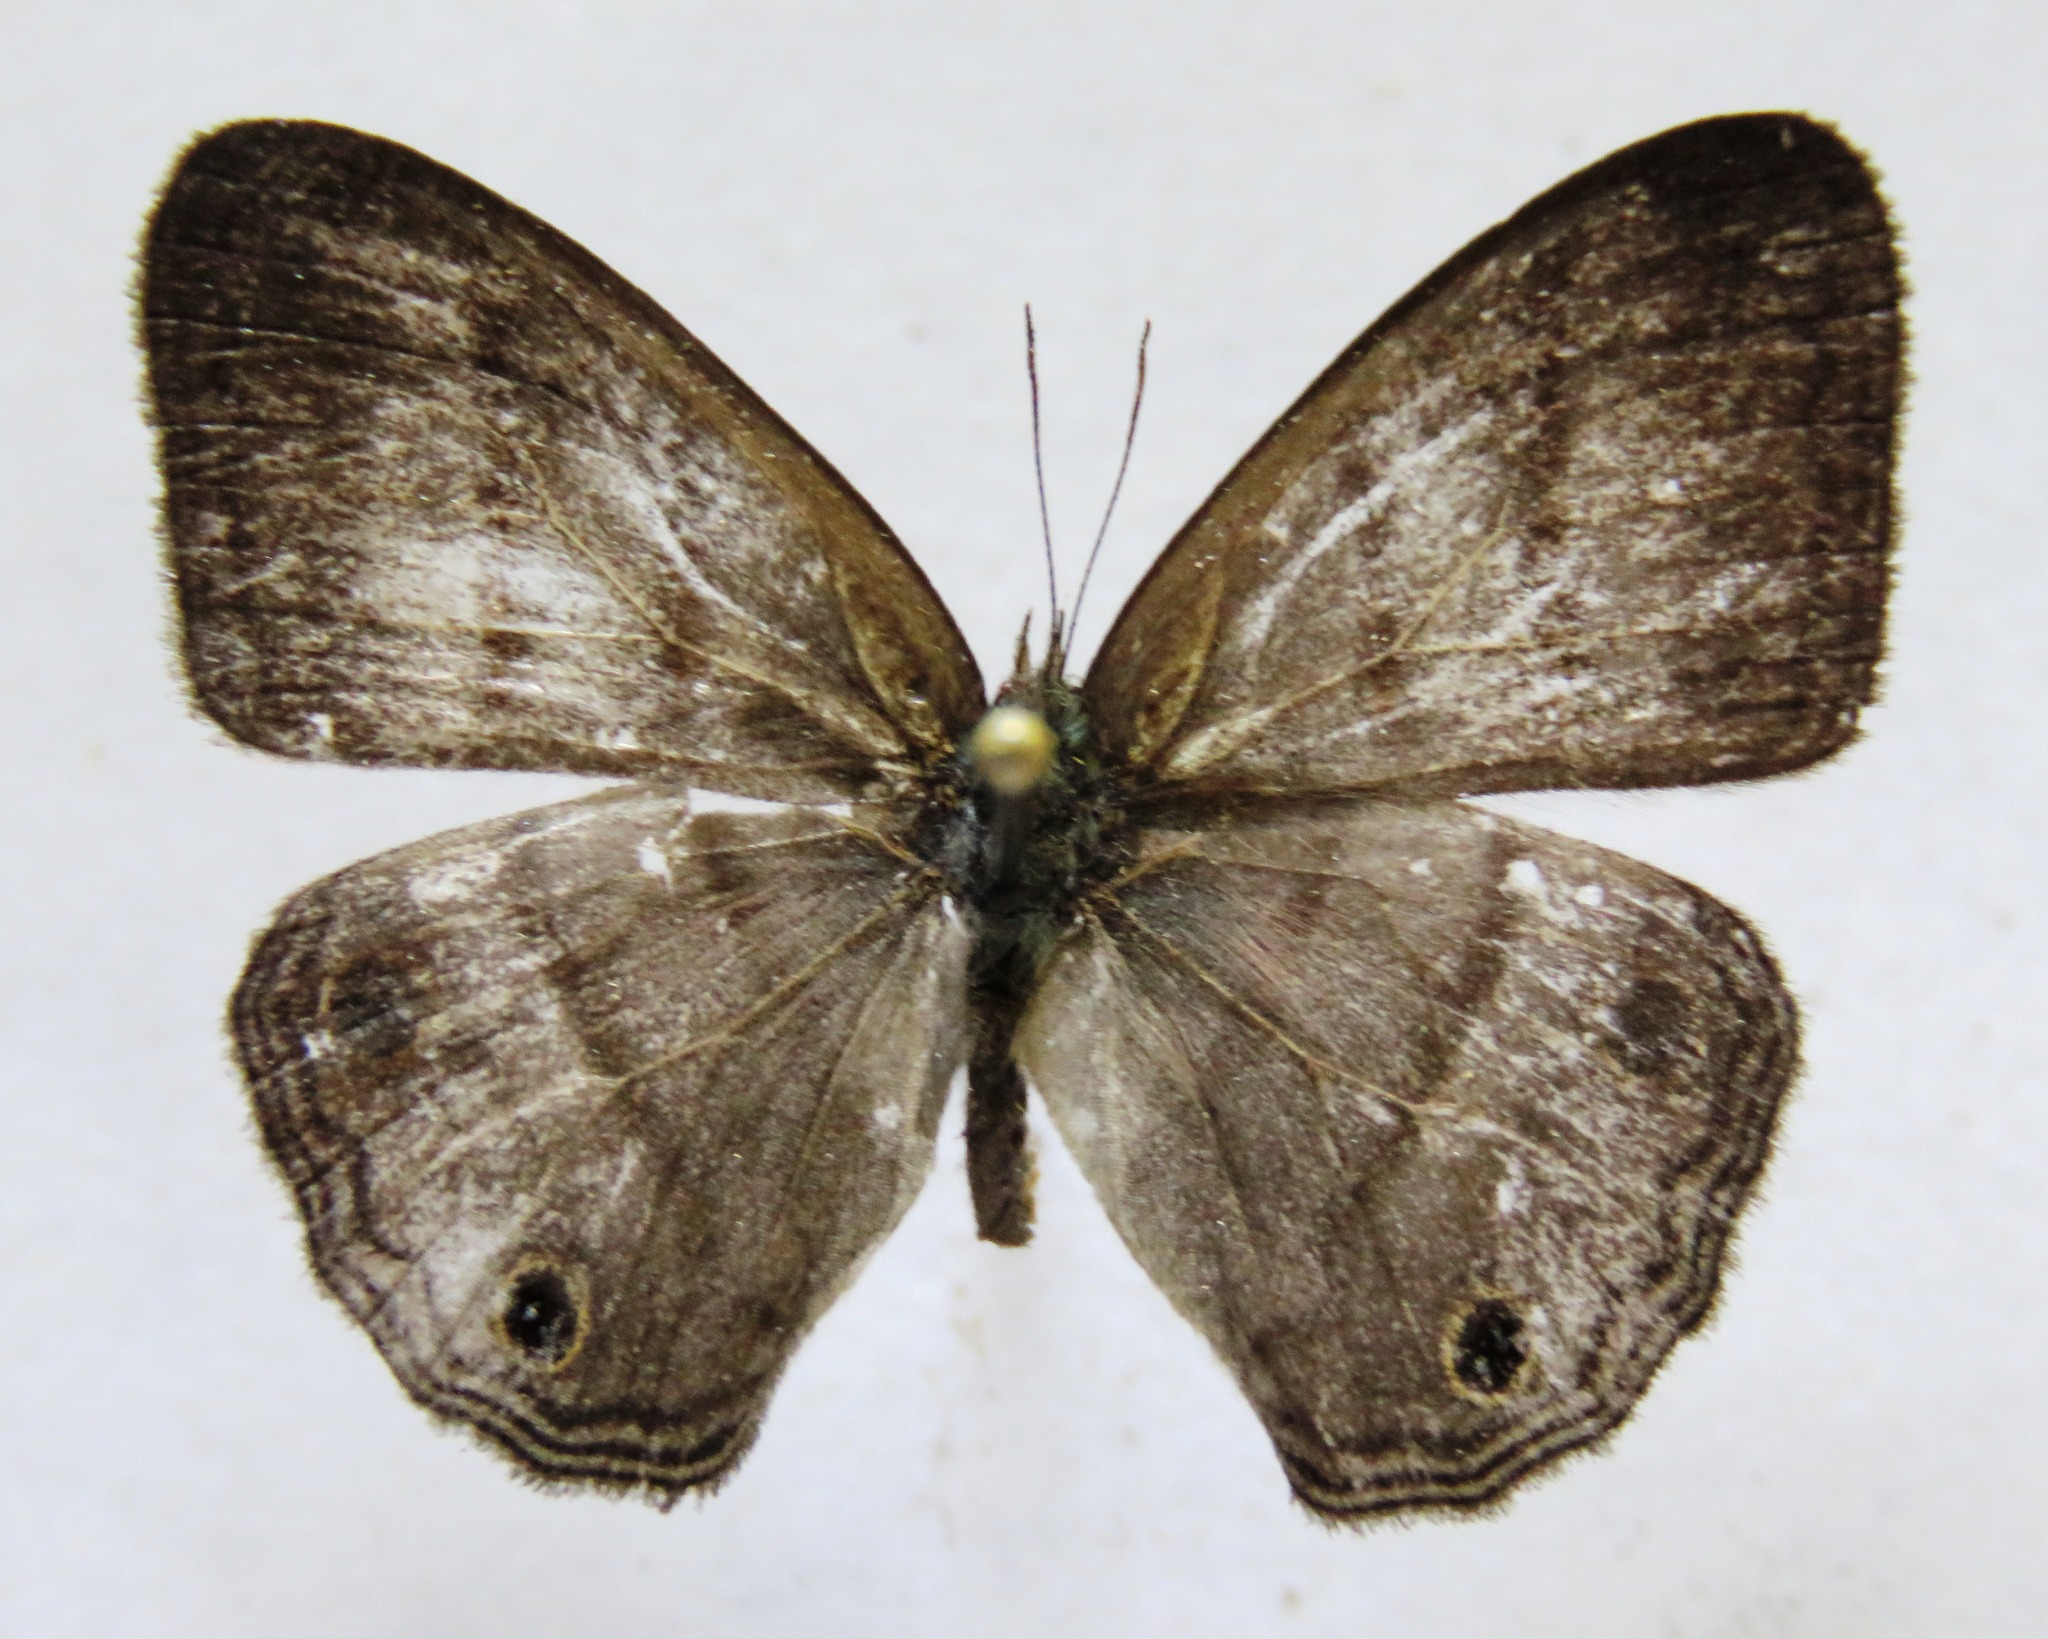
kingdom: Animalia
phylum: Arthropoda
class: Insecta
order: Lepidoptera
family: Nymphalidae
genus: Euptychia
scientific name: Euptychia terrestris
